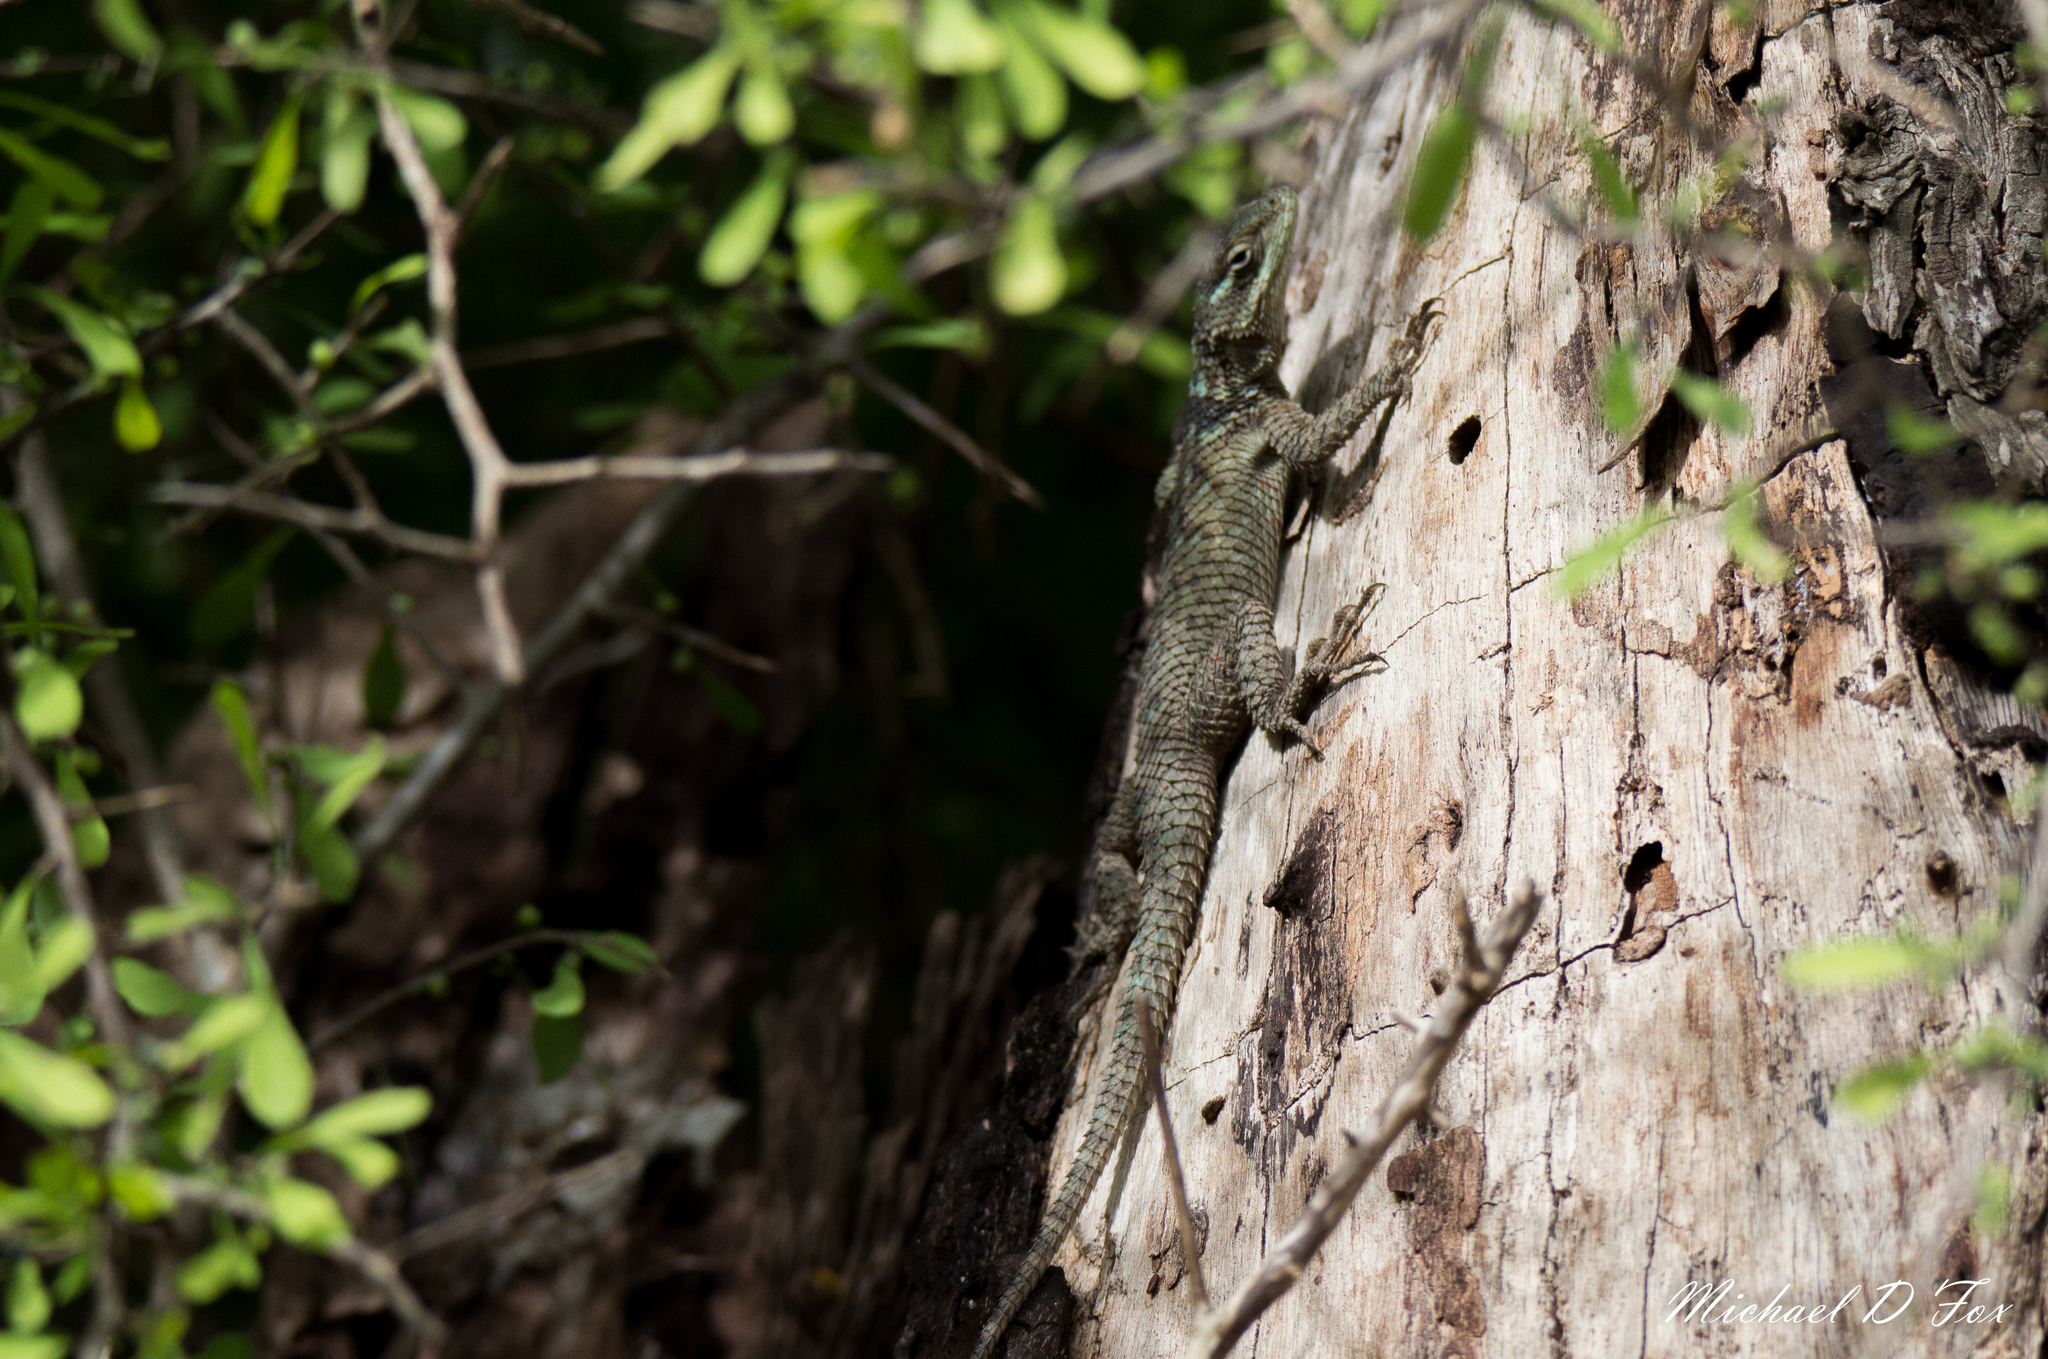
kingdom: Animalia
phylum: Chordata
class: Squamata
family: Phrynosomatidae
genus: Sceloporus
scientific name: Sceloporus cyanogenys
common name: Blue spiny lizard
